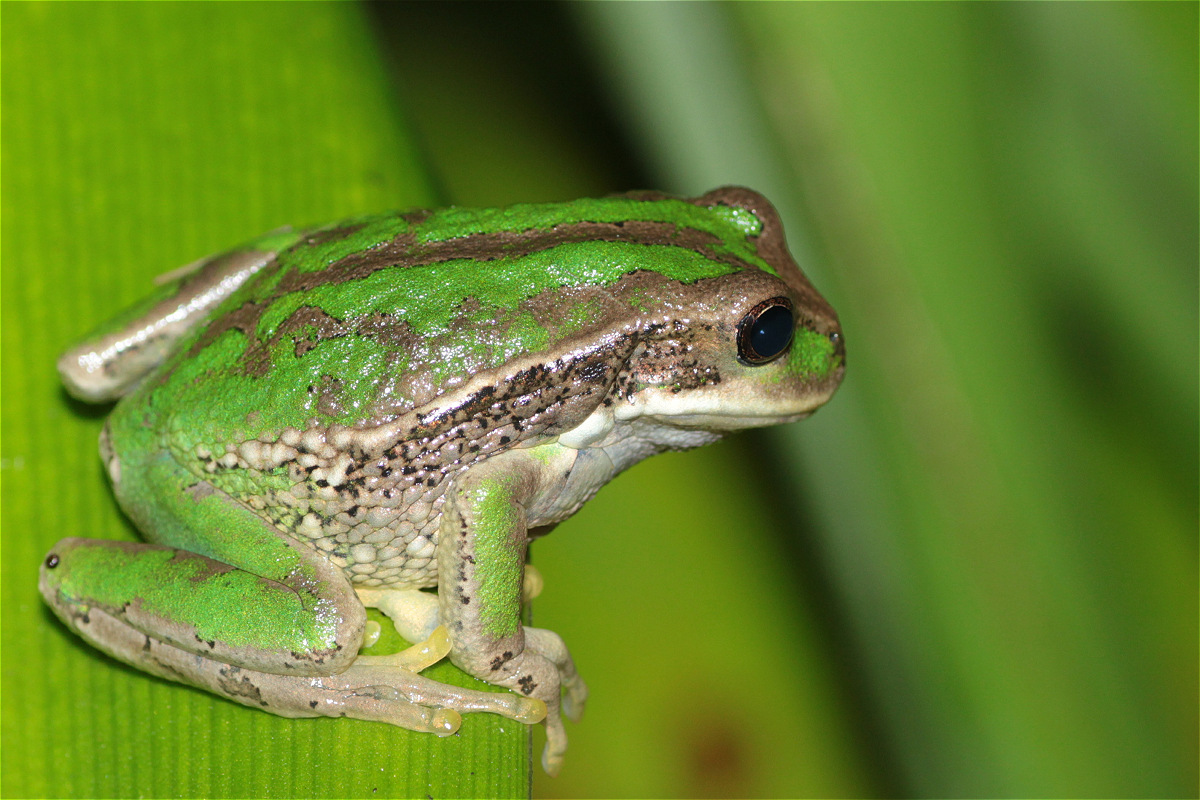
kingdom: Animalia
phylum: Chordata
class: Amphibia
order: Anura
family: Hemiphractidae
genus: Gastrotheca
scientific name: Gastrotheca cuencana
